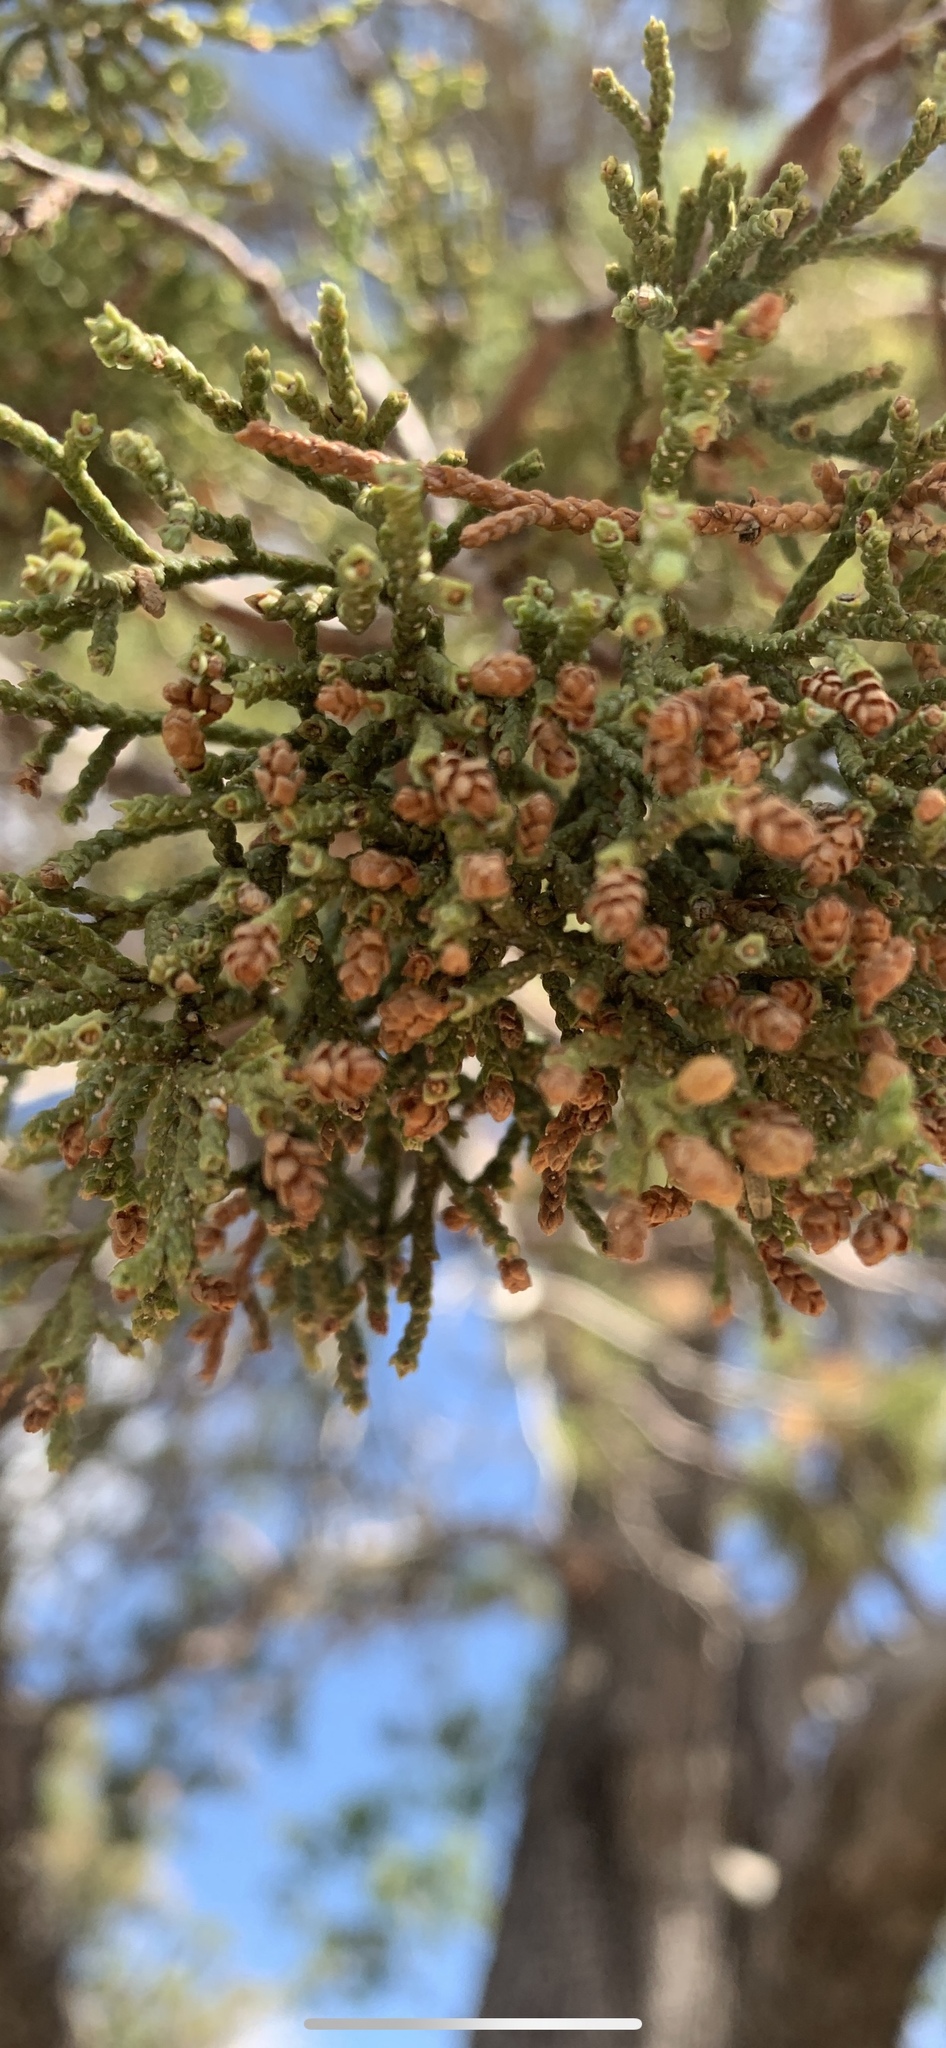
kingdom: Plantae
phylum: Tracheophyta
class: Pinopsida
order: Pinales
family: Cupressaceae
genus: Juniperus
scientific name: Juniperus deppeana
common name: Alligator juniper
